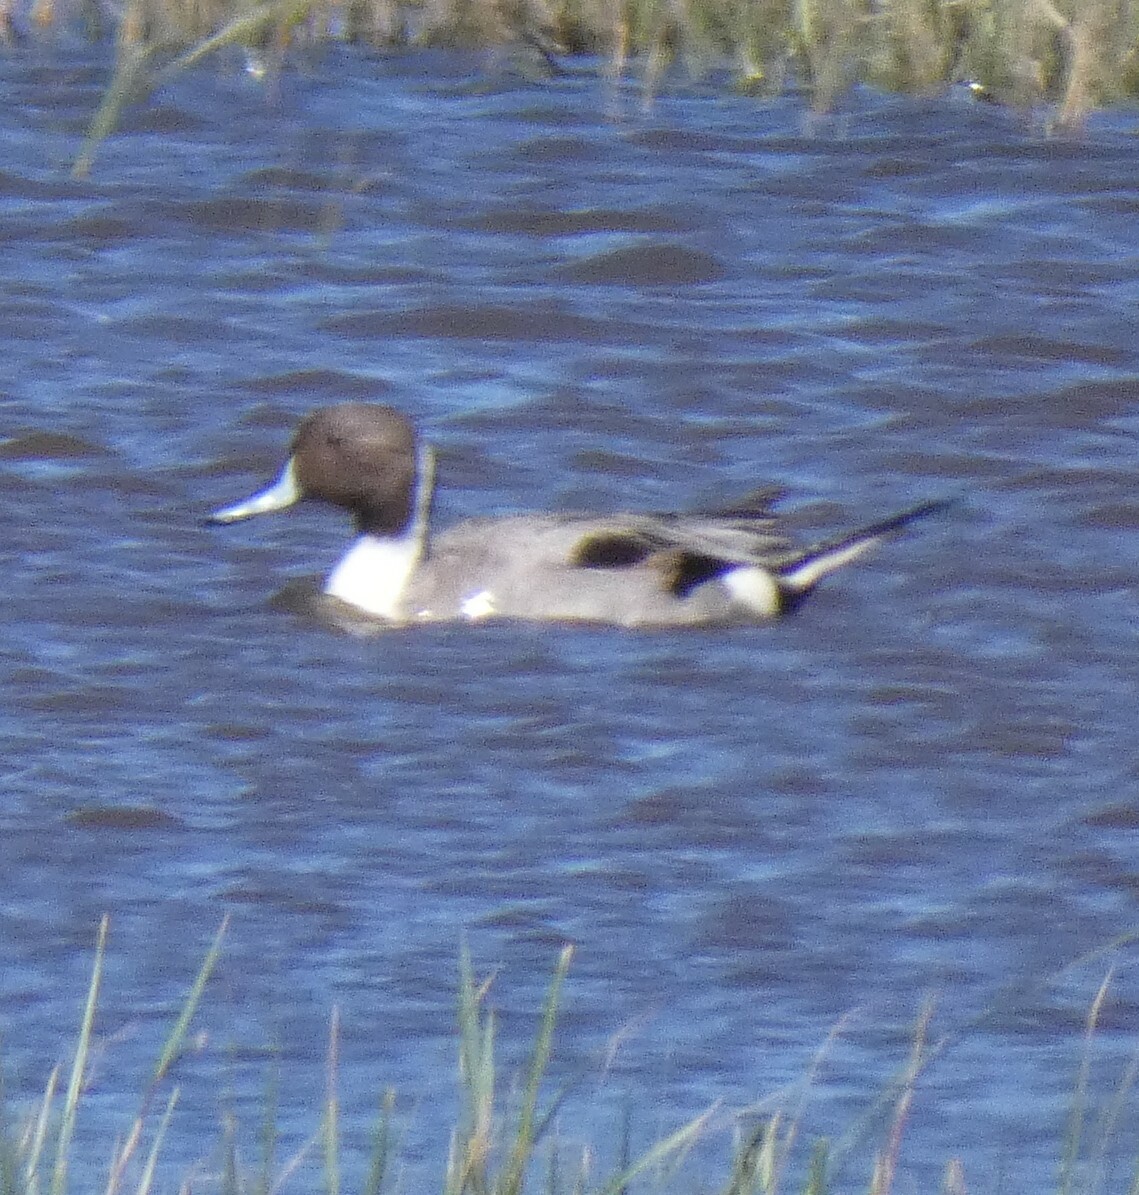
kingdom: Animalia
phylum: Chordata
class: Aves
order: Anseriformes
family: Anatidae
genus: Anas
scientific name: Anas acuta
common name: Northern pintail
